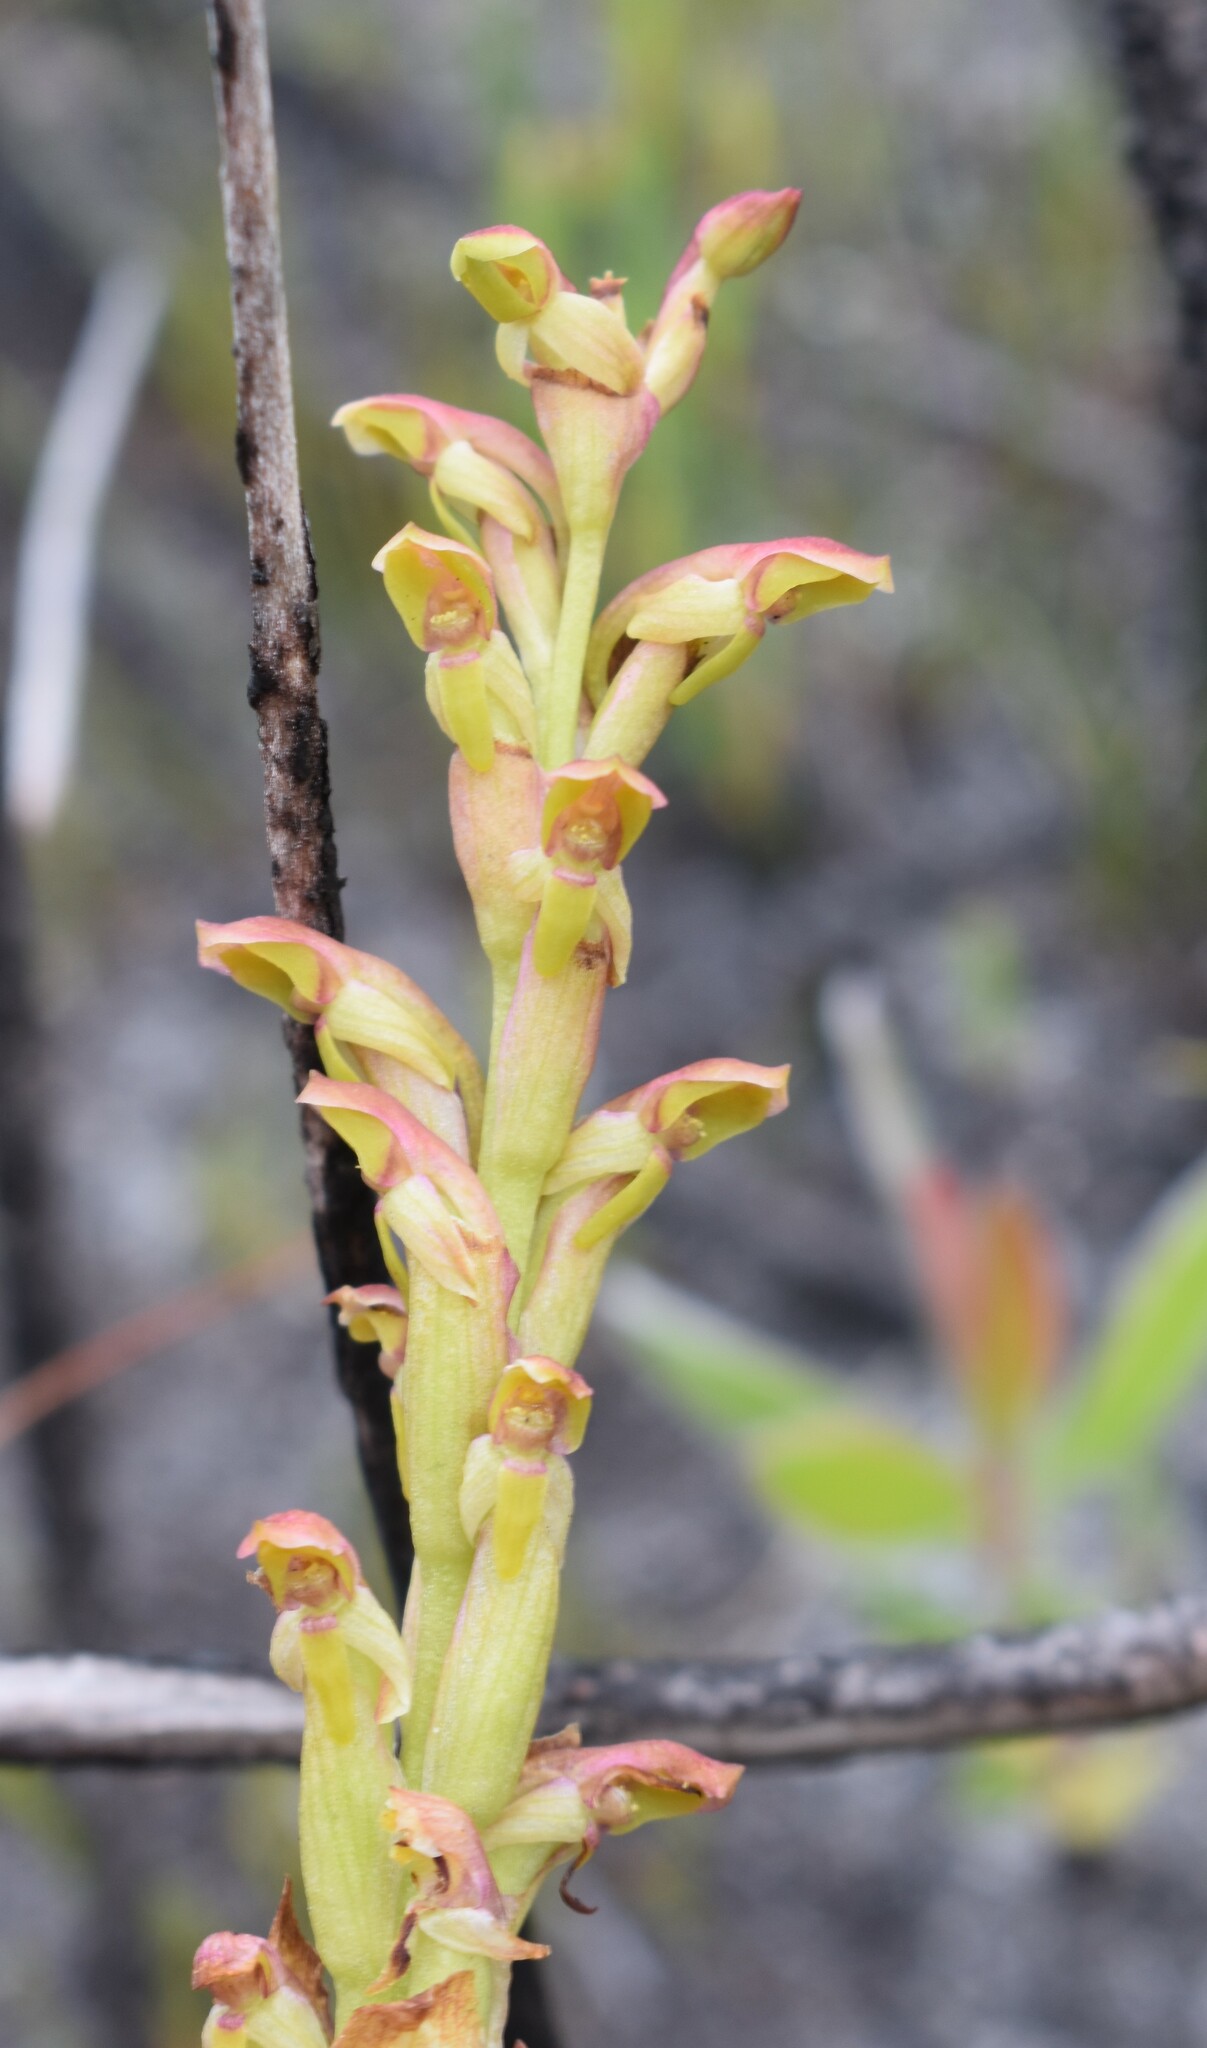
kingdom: Plantae
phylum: Tracheophyta
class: Liliopsida
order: Asparagales
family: Orchidaceae
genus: Disa
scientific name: Disa reticulata
